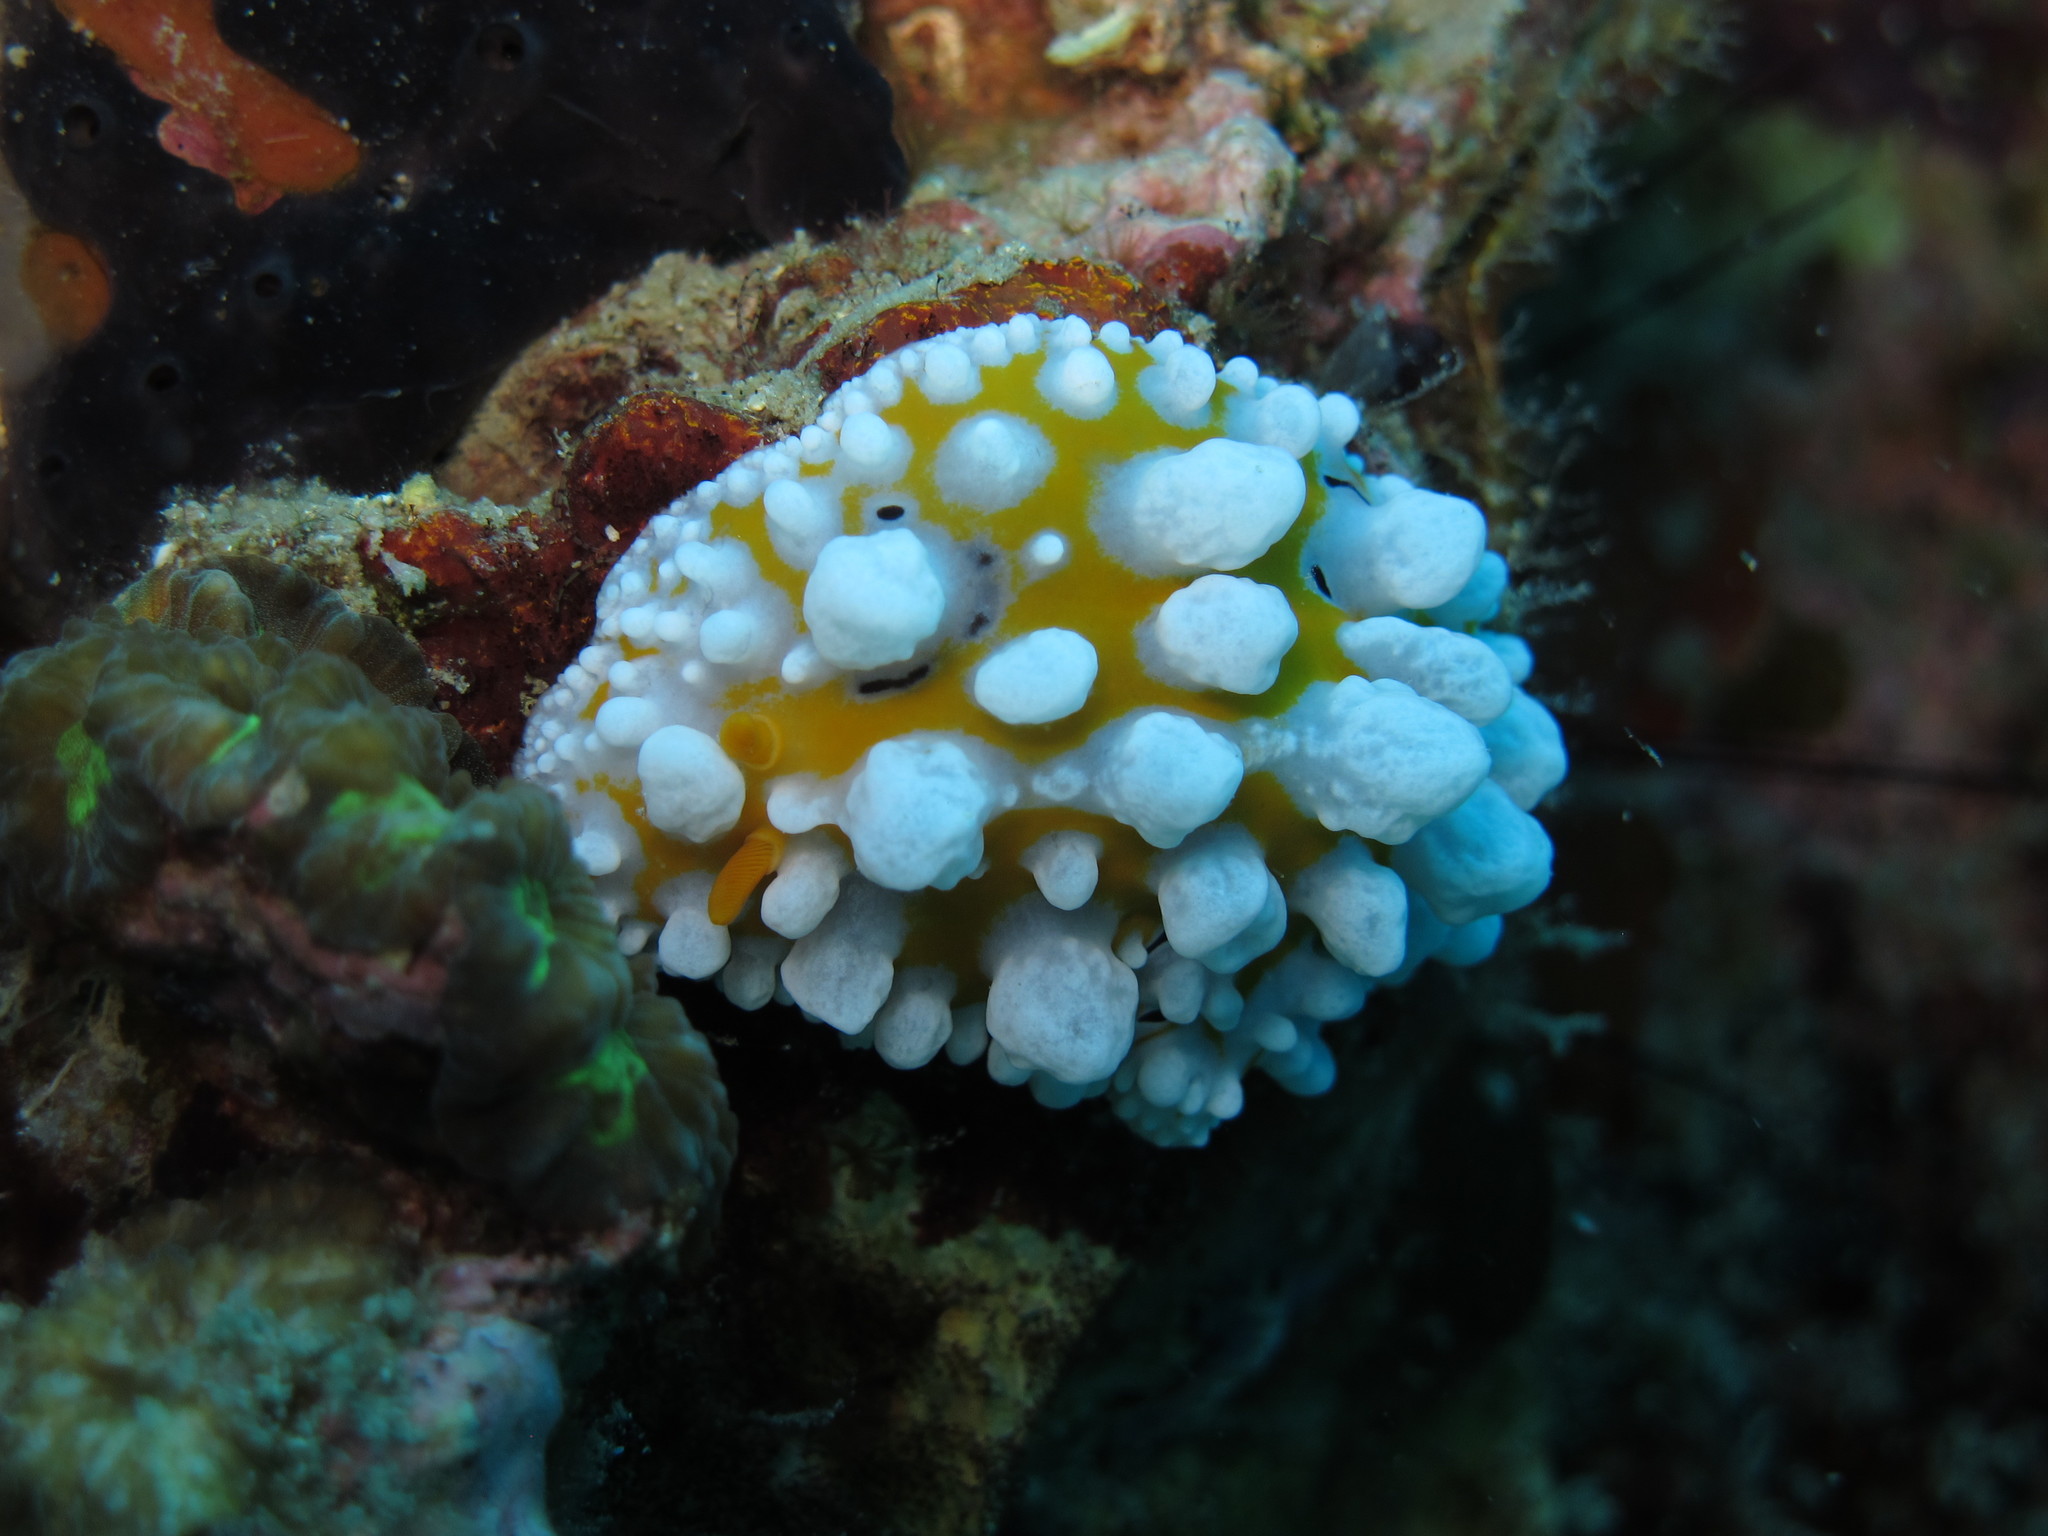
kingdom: Animalia
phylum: Mollusca
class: Gastropoda
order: Nudibranchia
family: Phyllidiidae
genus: Phyllidia
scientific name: Phyllidia ocellata
